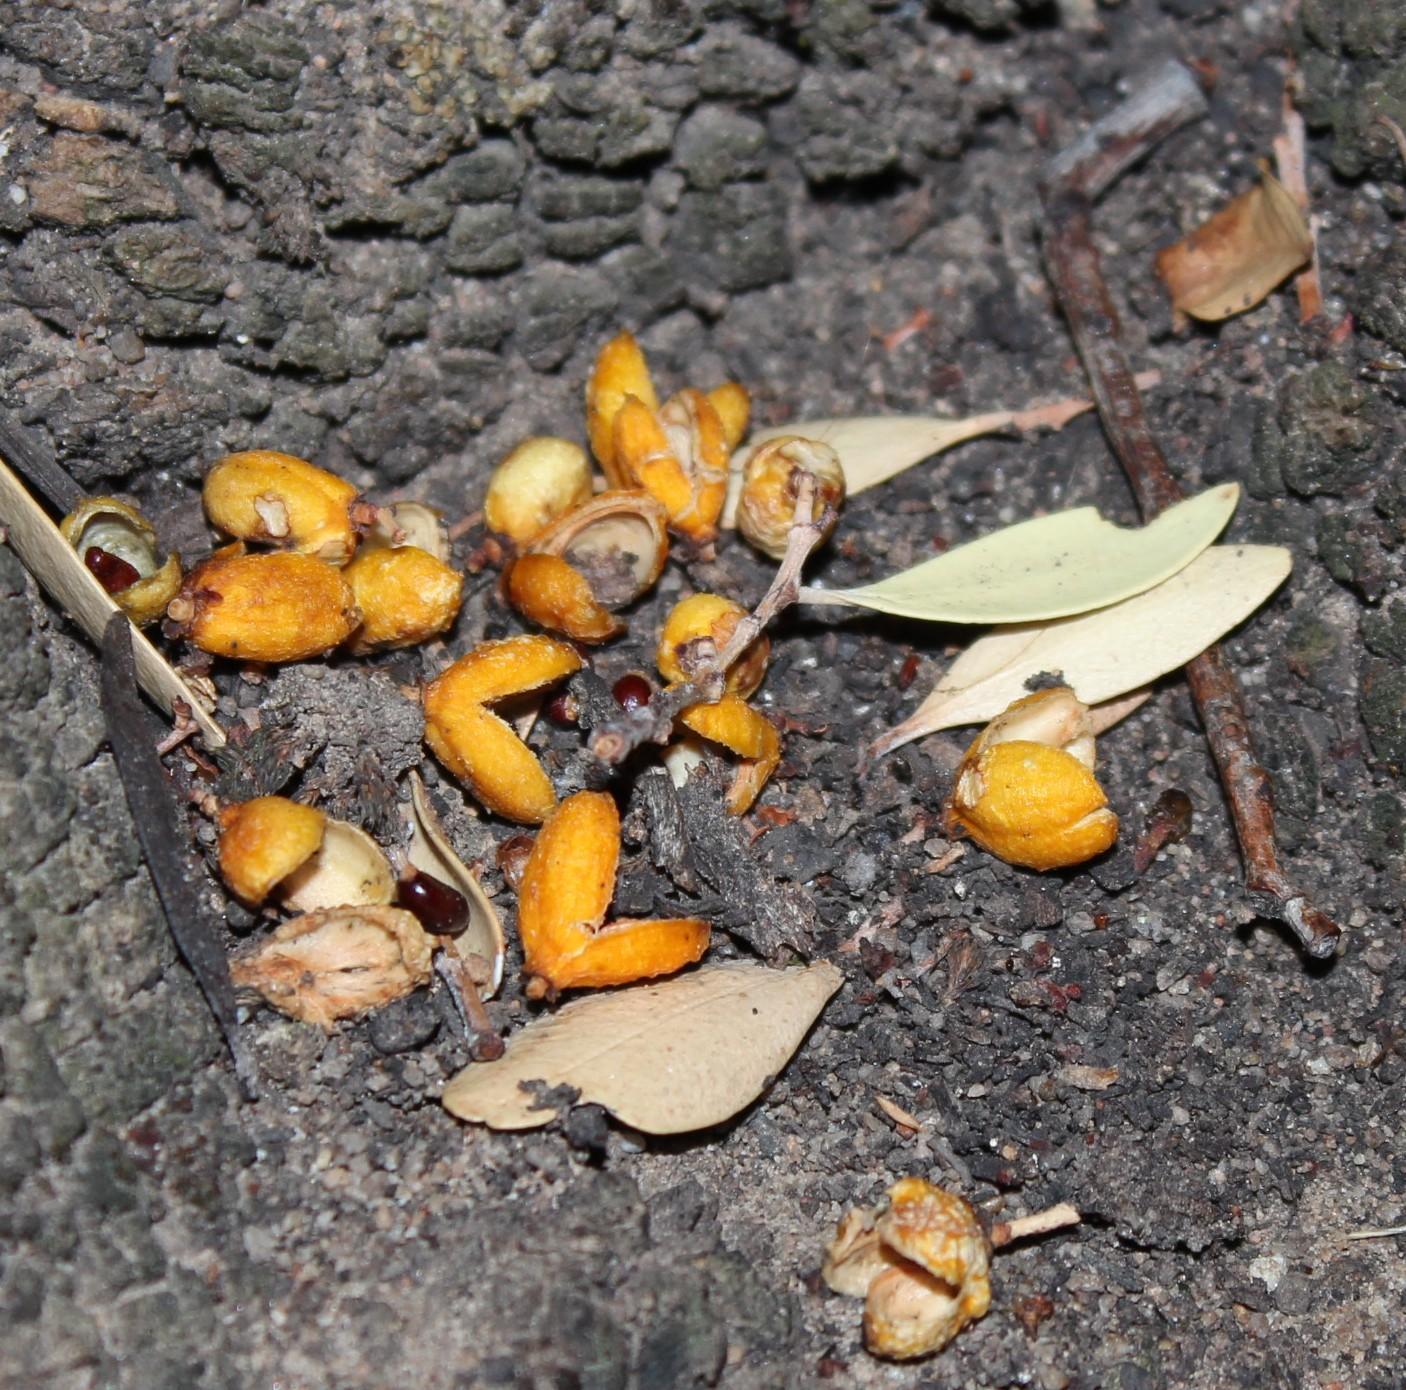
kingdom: Plantae
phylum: Tracheophyta
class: Magnoliopsida
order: Celastrales
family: Celastraceae
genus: Gymnosporia
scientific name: Gymnosporia laurina
